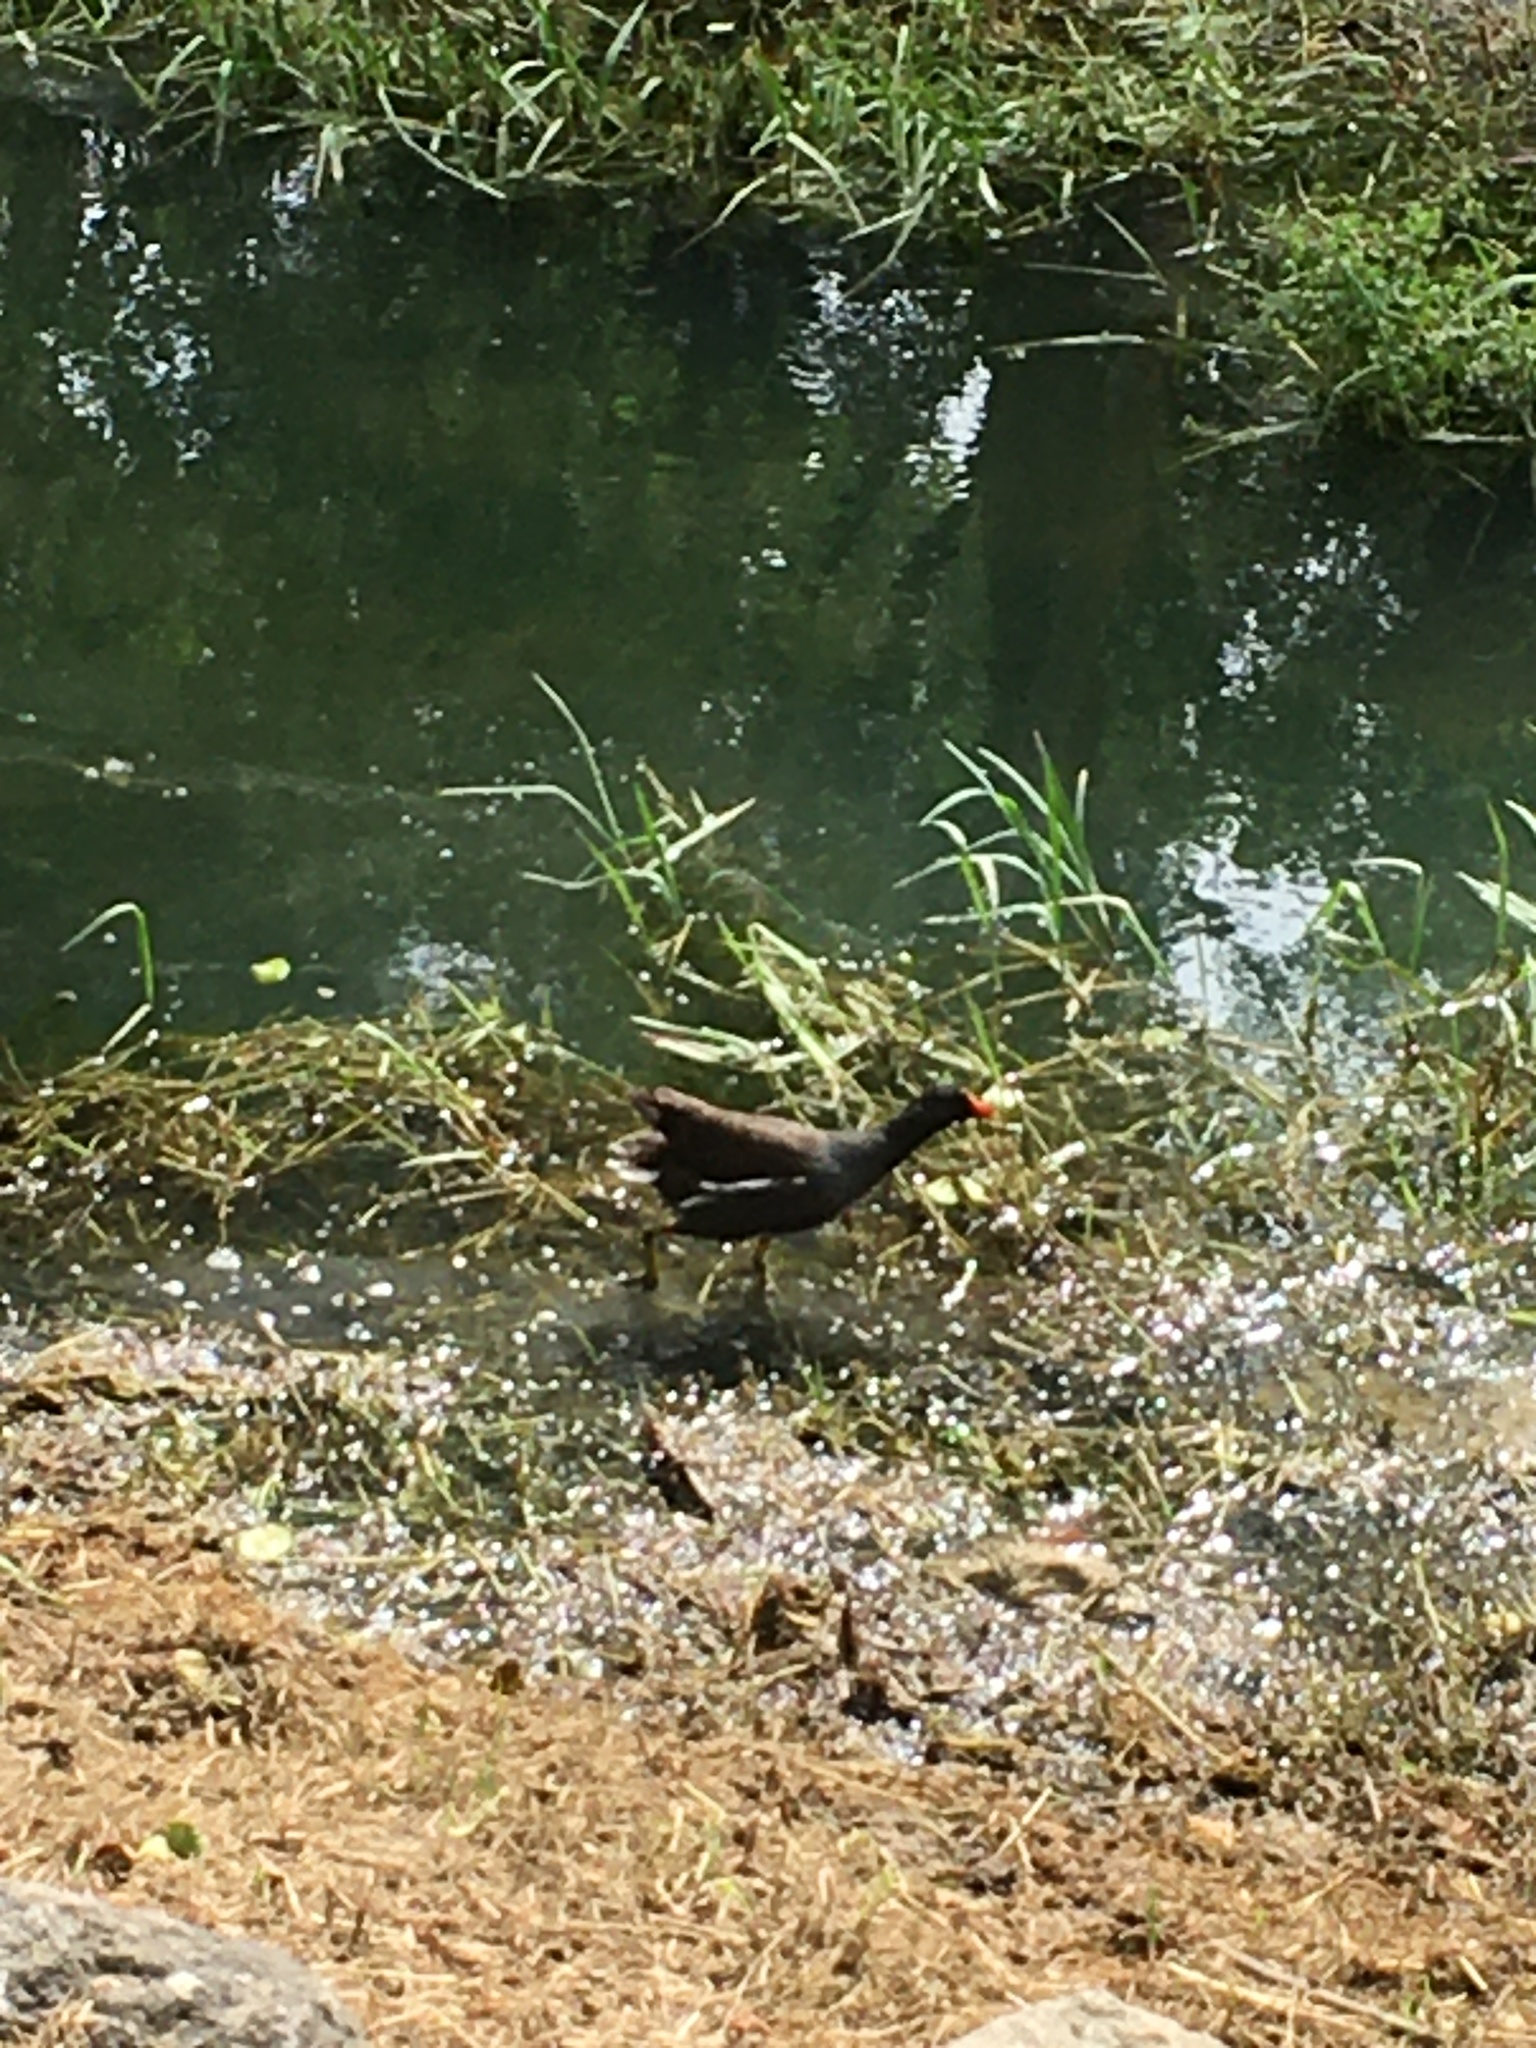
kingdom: Animalia
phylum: Chordata
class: Aves
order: Gruiformes
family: Rallidae
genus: Gallinula
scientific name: Gallinula chloropus
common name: Common moorhen
